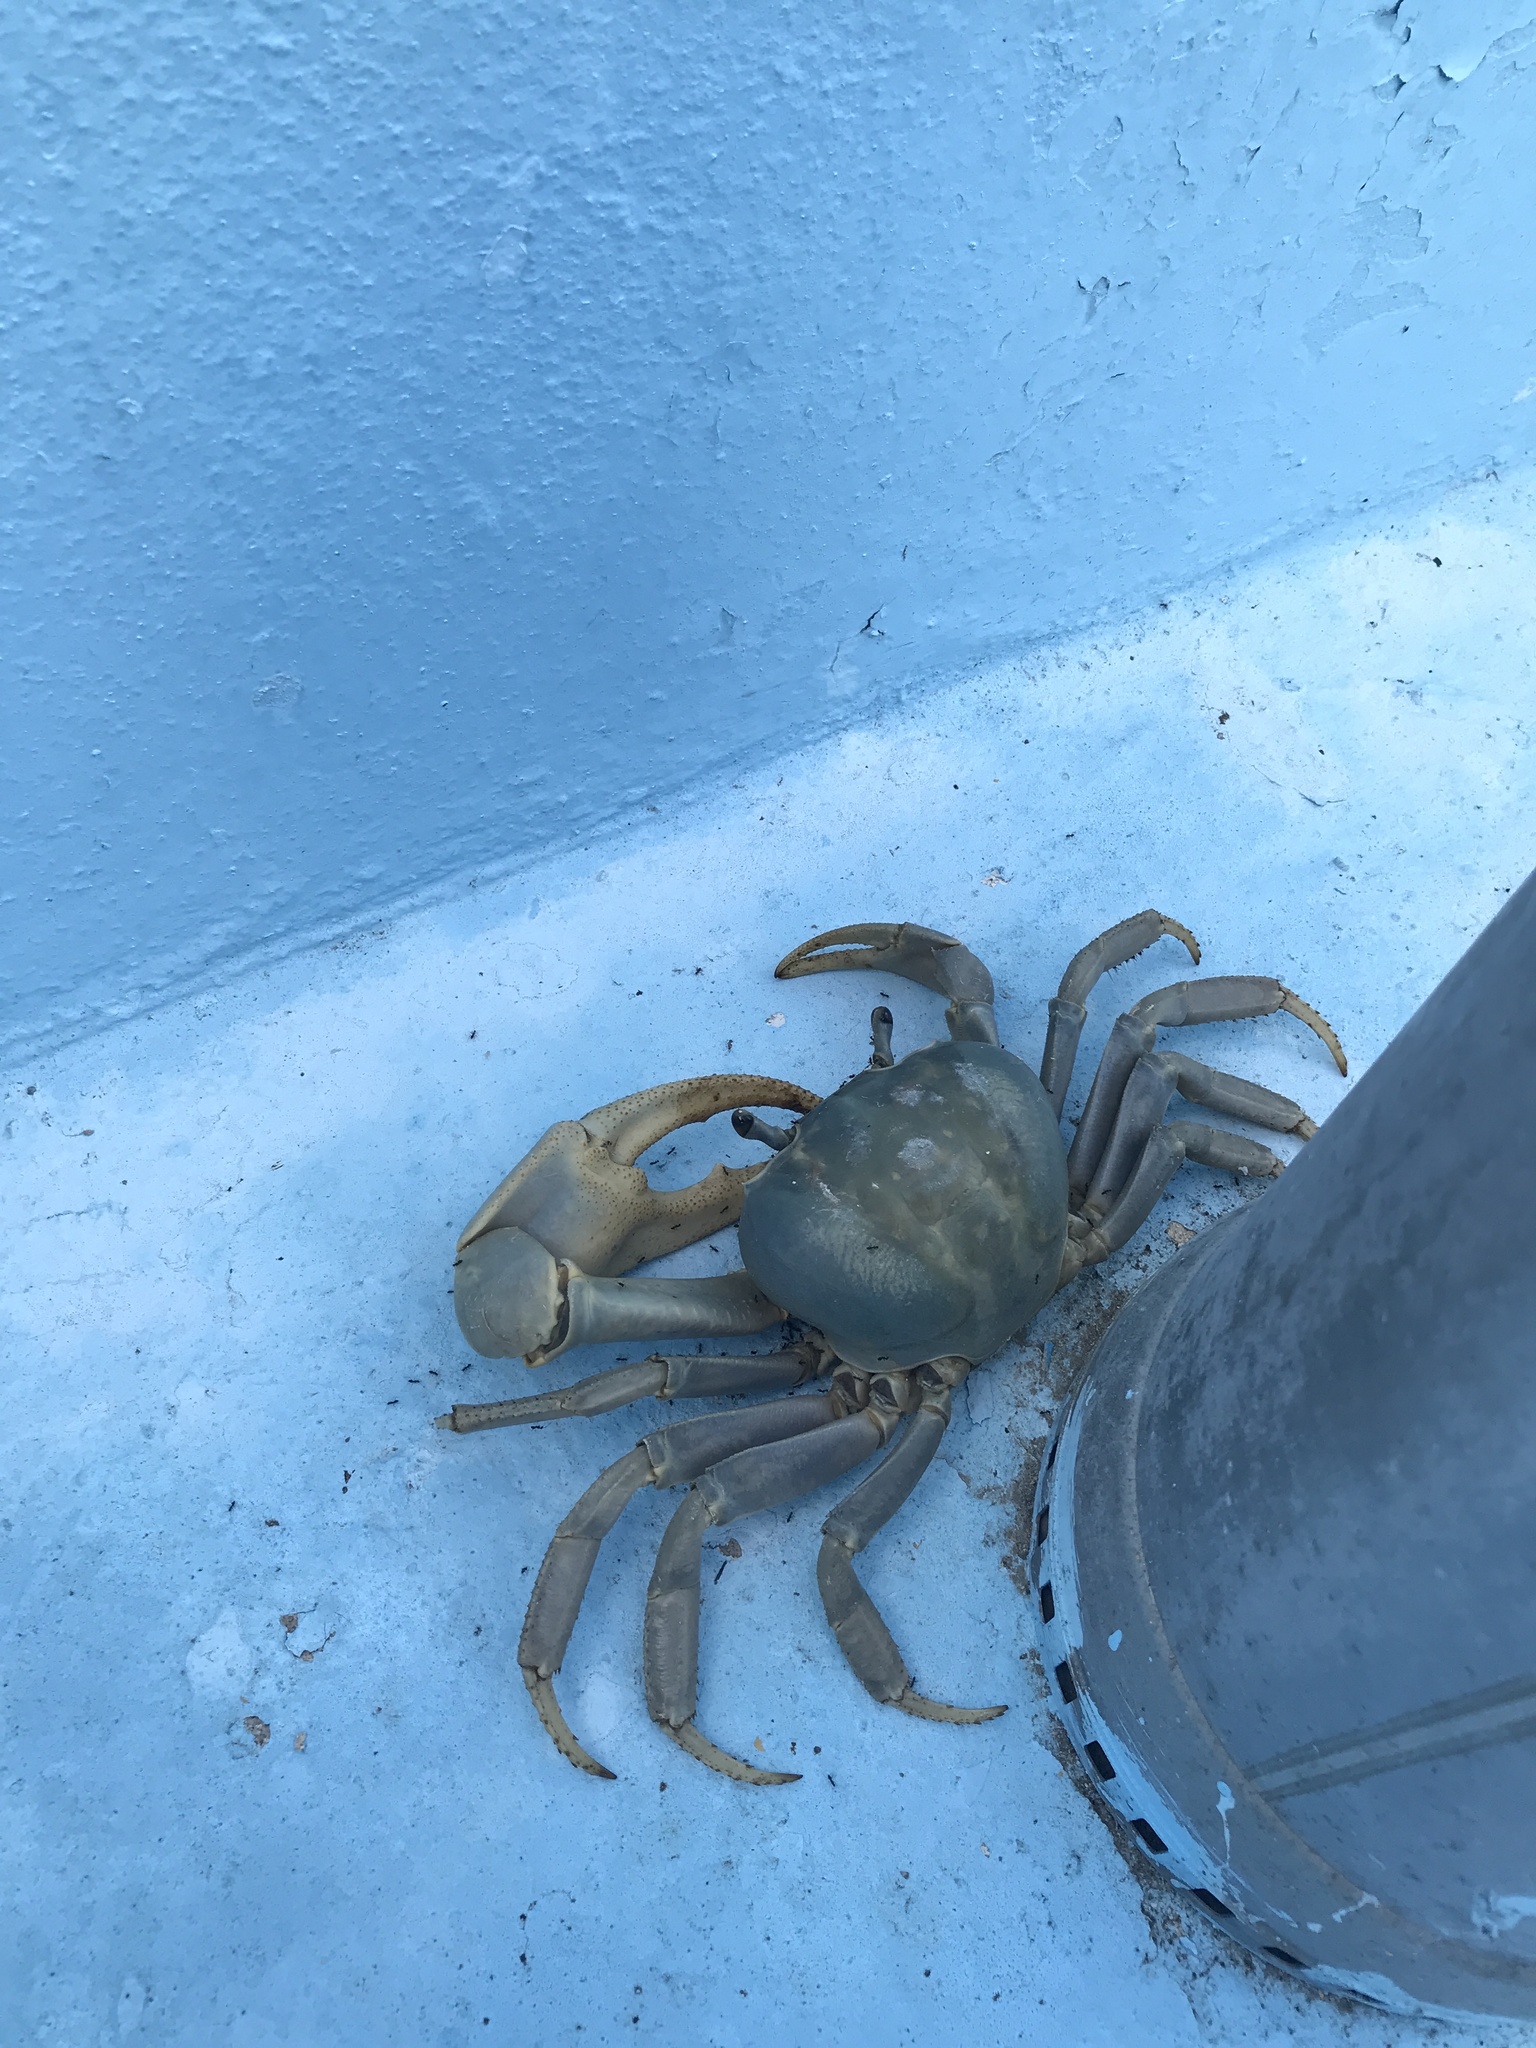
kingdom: Animalia
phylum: Arthropoda
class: Malacostraca
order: Decapoda
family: Gecarcinidae
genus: Cardisoma
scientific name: Cardisoma guanhumi
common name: Great land crab
